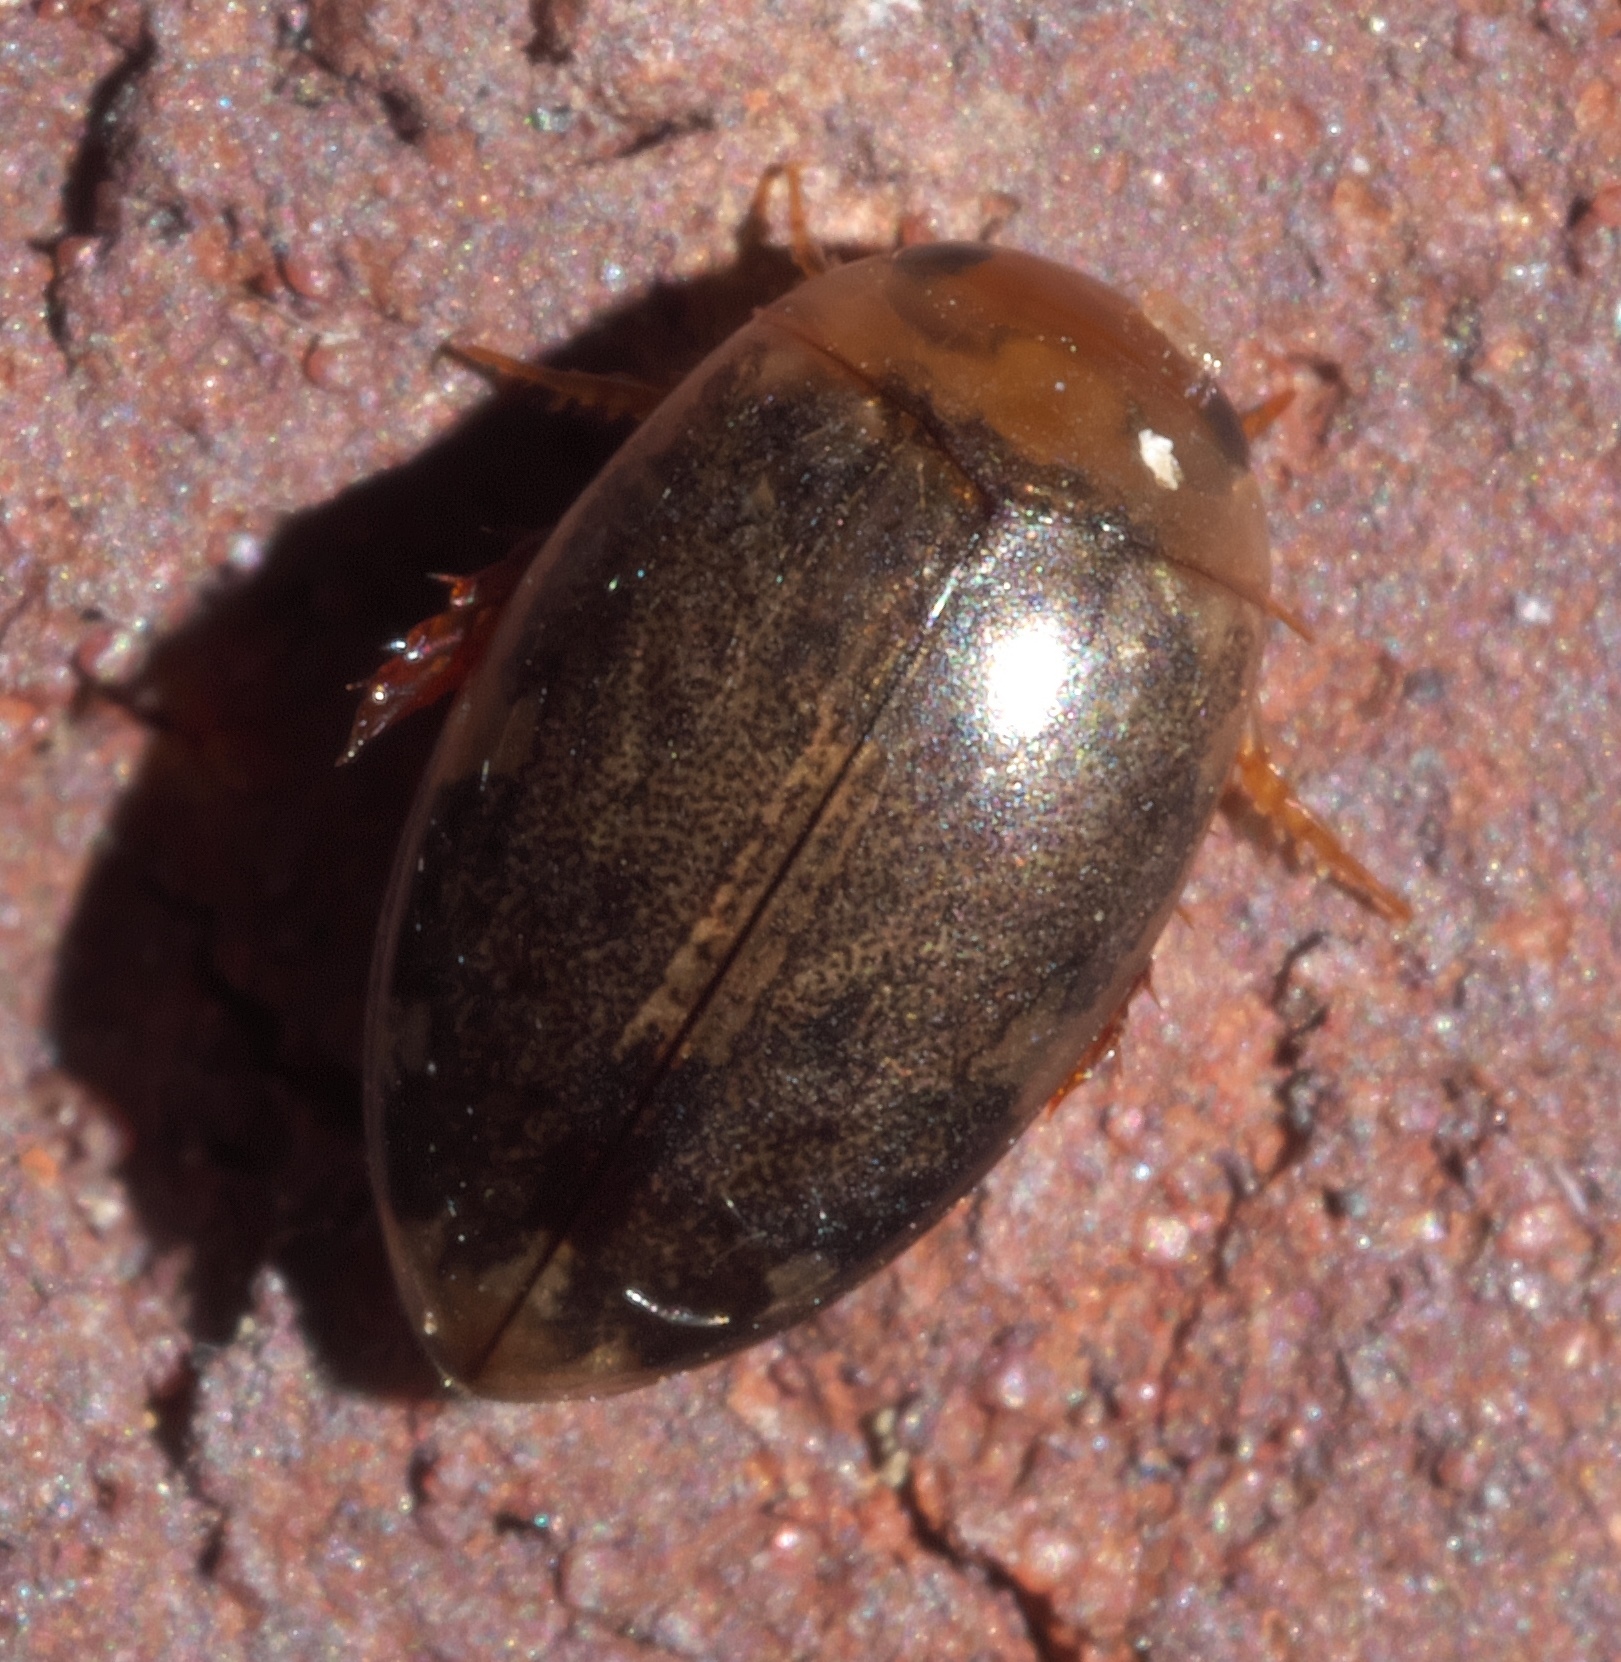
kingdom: Animalia
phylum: Arthropoda
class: Insecta
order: Coleoptera
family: Dytiscidae
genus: Laccophilus
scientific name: Laccophilus proximus
